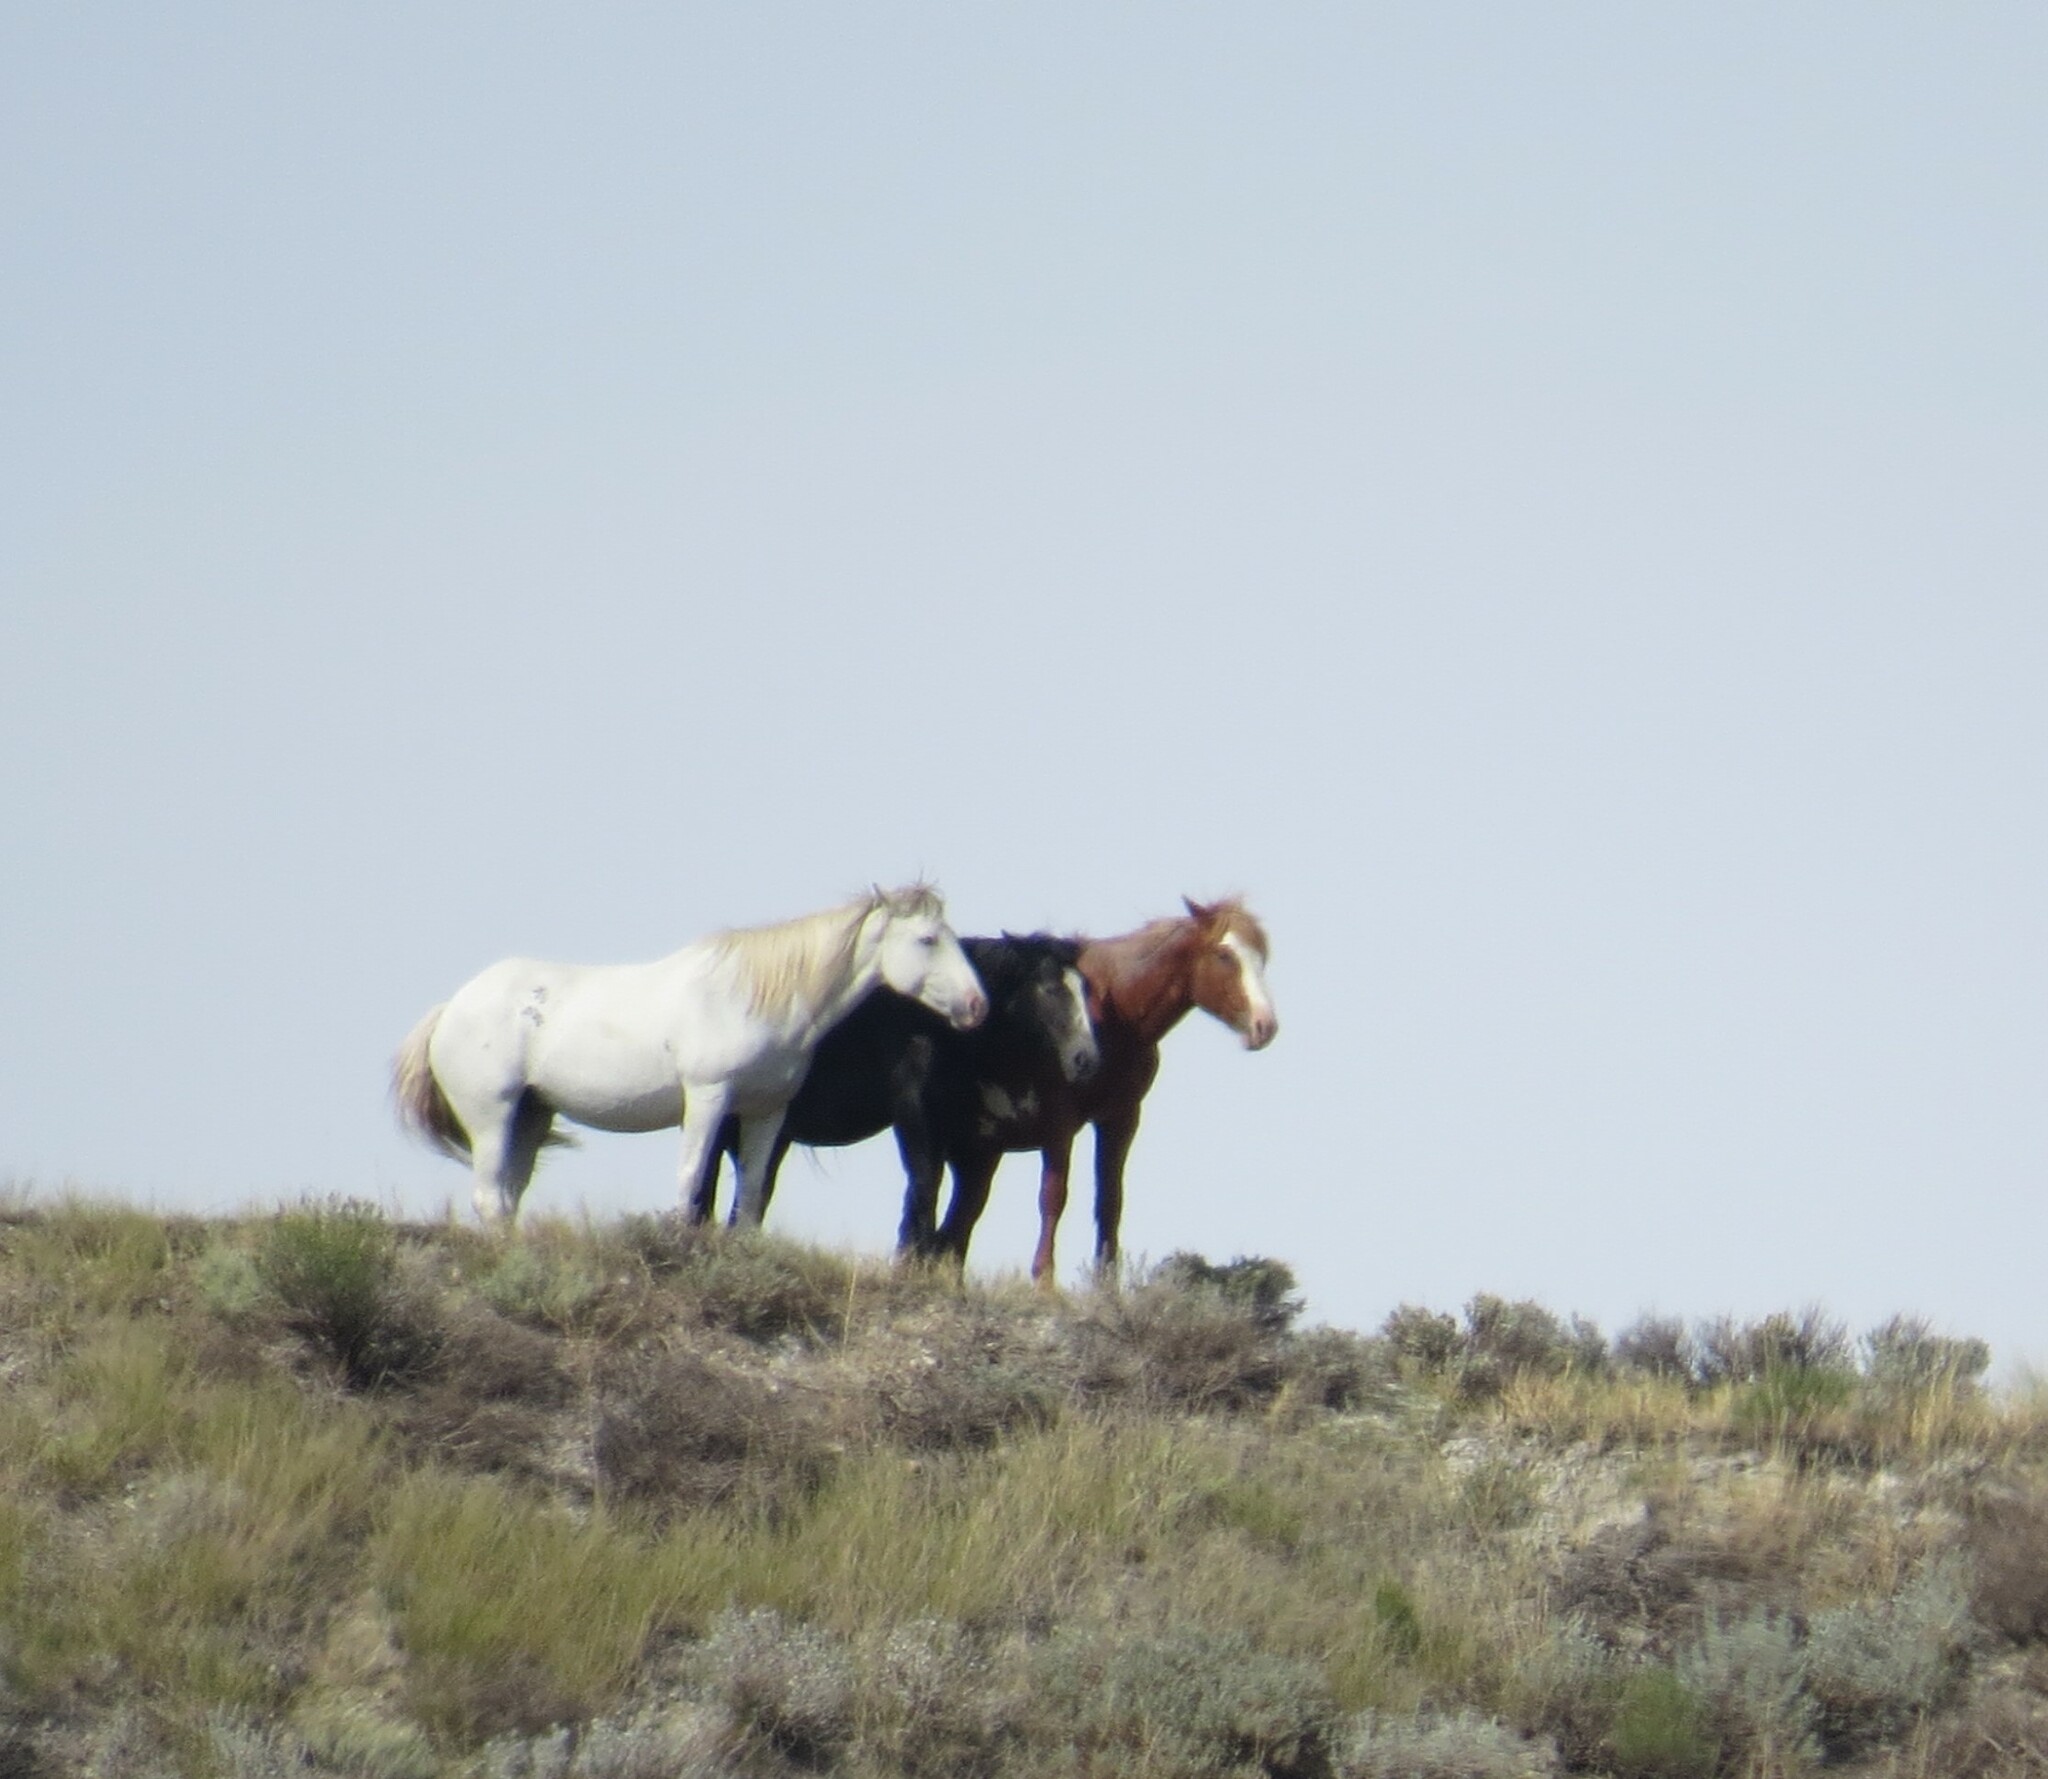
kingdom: Animalia
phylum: Chordata
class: Mammalia
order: Perissodactyla
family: Equidae
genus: Equus
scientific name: Equus caballus
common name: Horse
